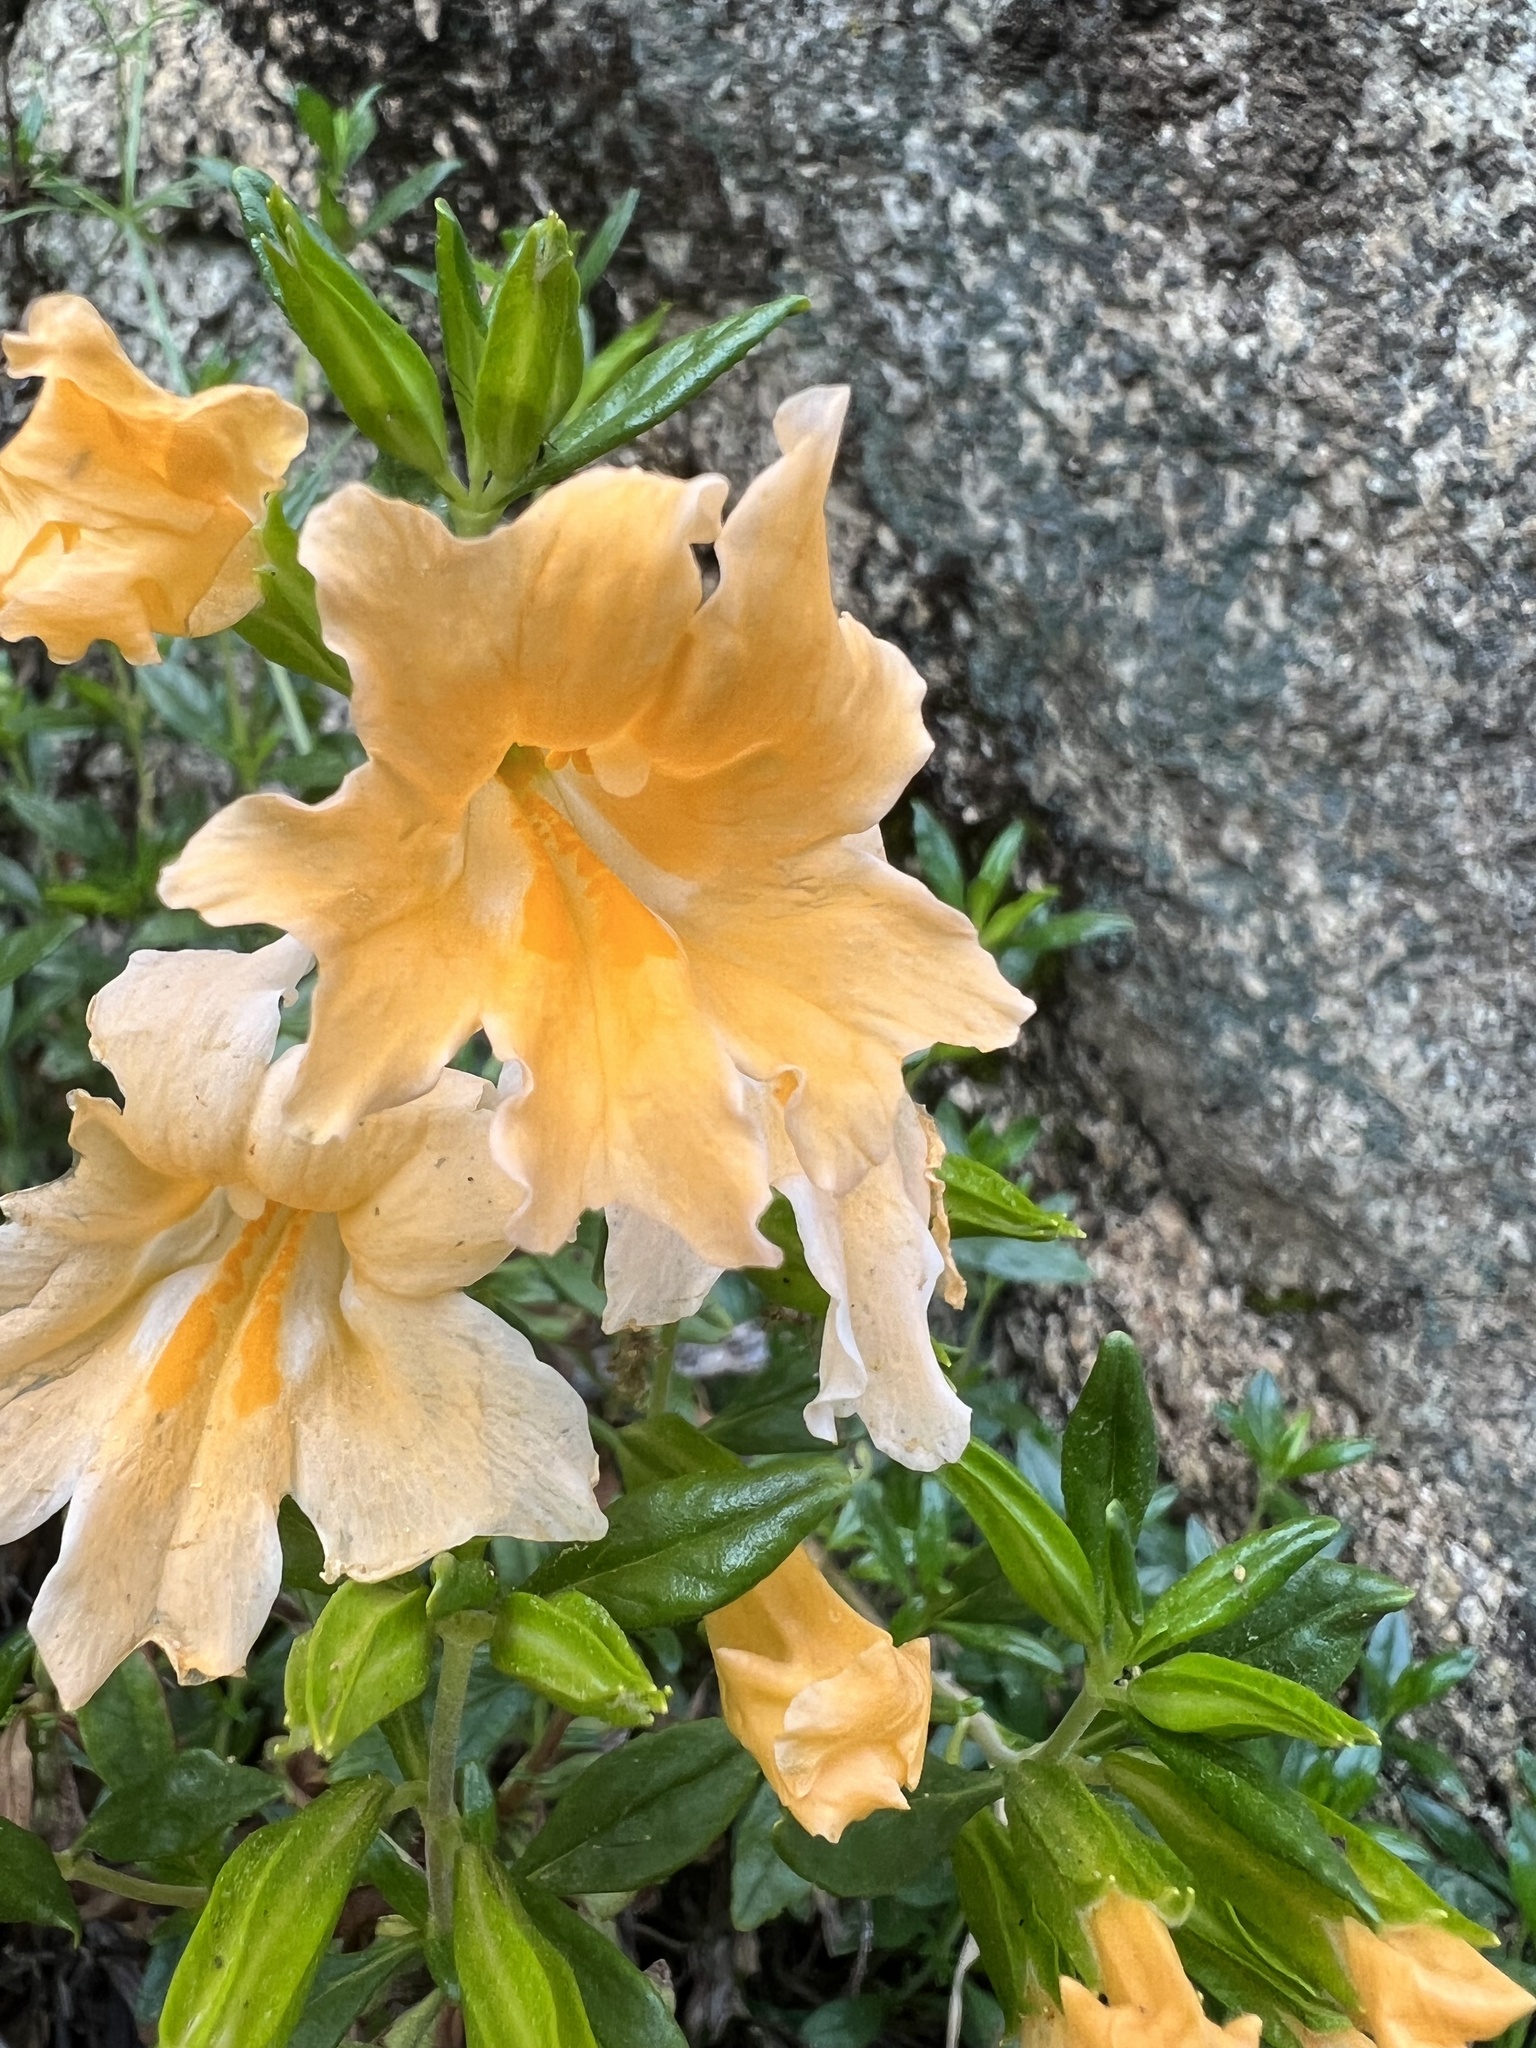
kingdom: Plantae
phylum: Tracheophyta
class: Magnoliopsida
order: Lamiales
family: Phrymaceae
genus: Diplacus
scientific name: Diplacus grandiflorus
